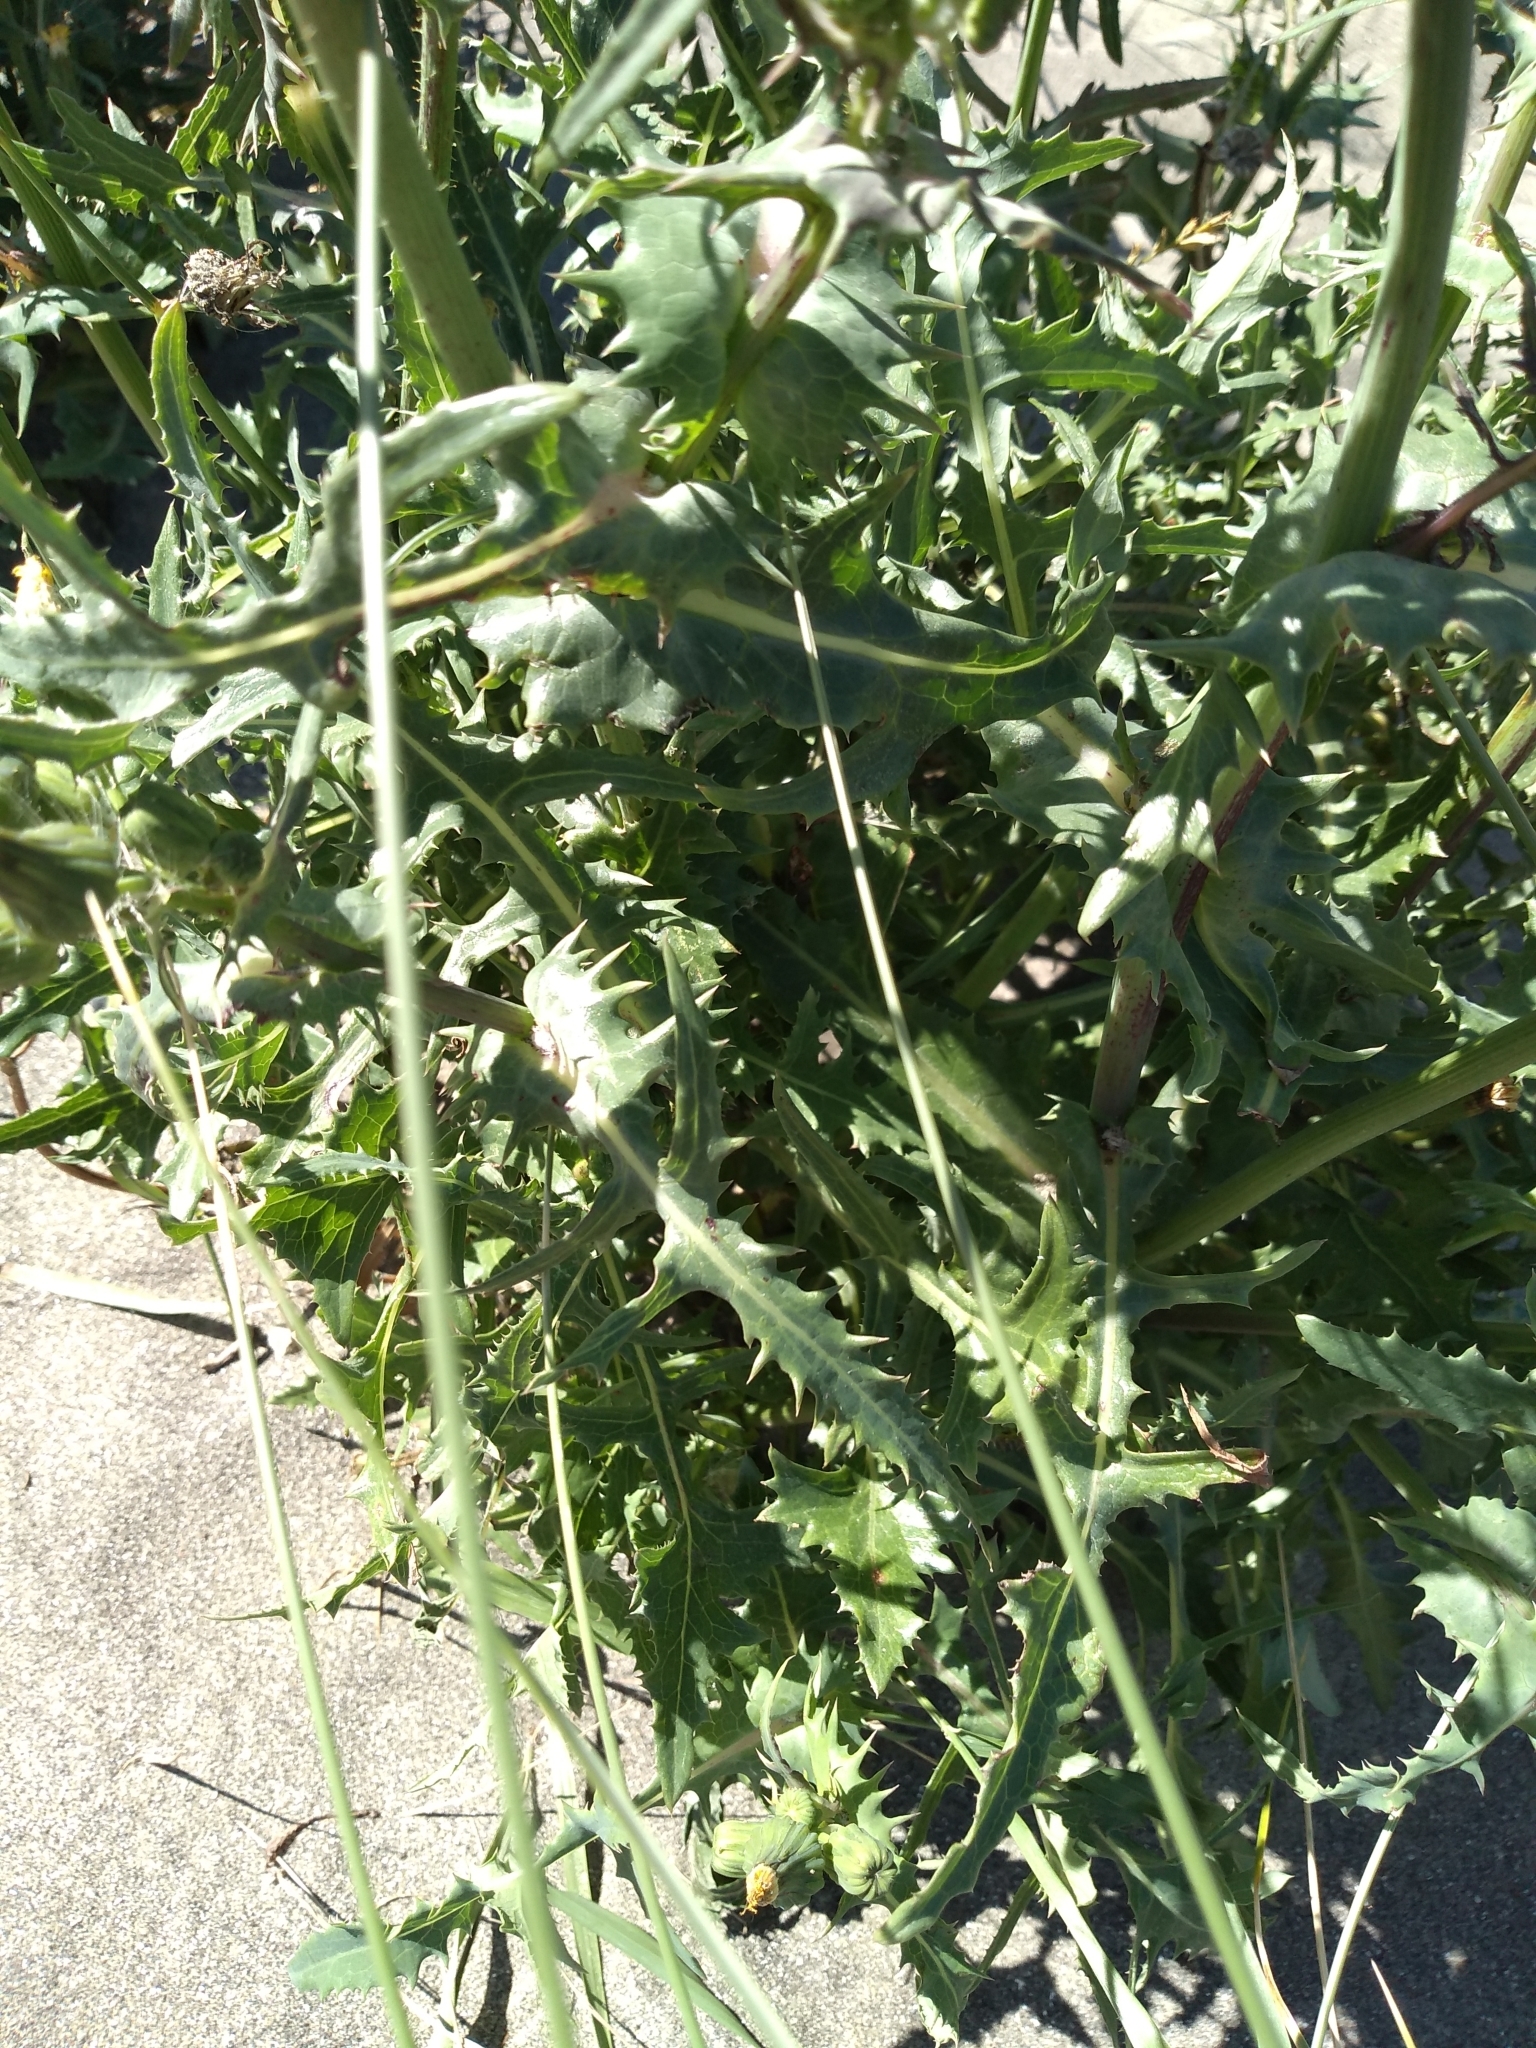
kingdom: Plantae
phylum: Tracheophyta
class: Magnoliopsida
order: Asterales
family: Asteraceae
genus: Sonchus
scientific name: Sonchus asper
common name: Prickly sow-thistle
